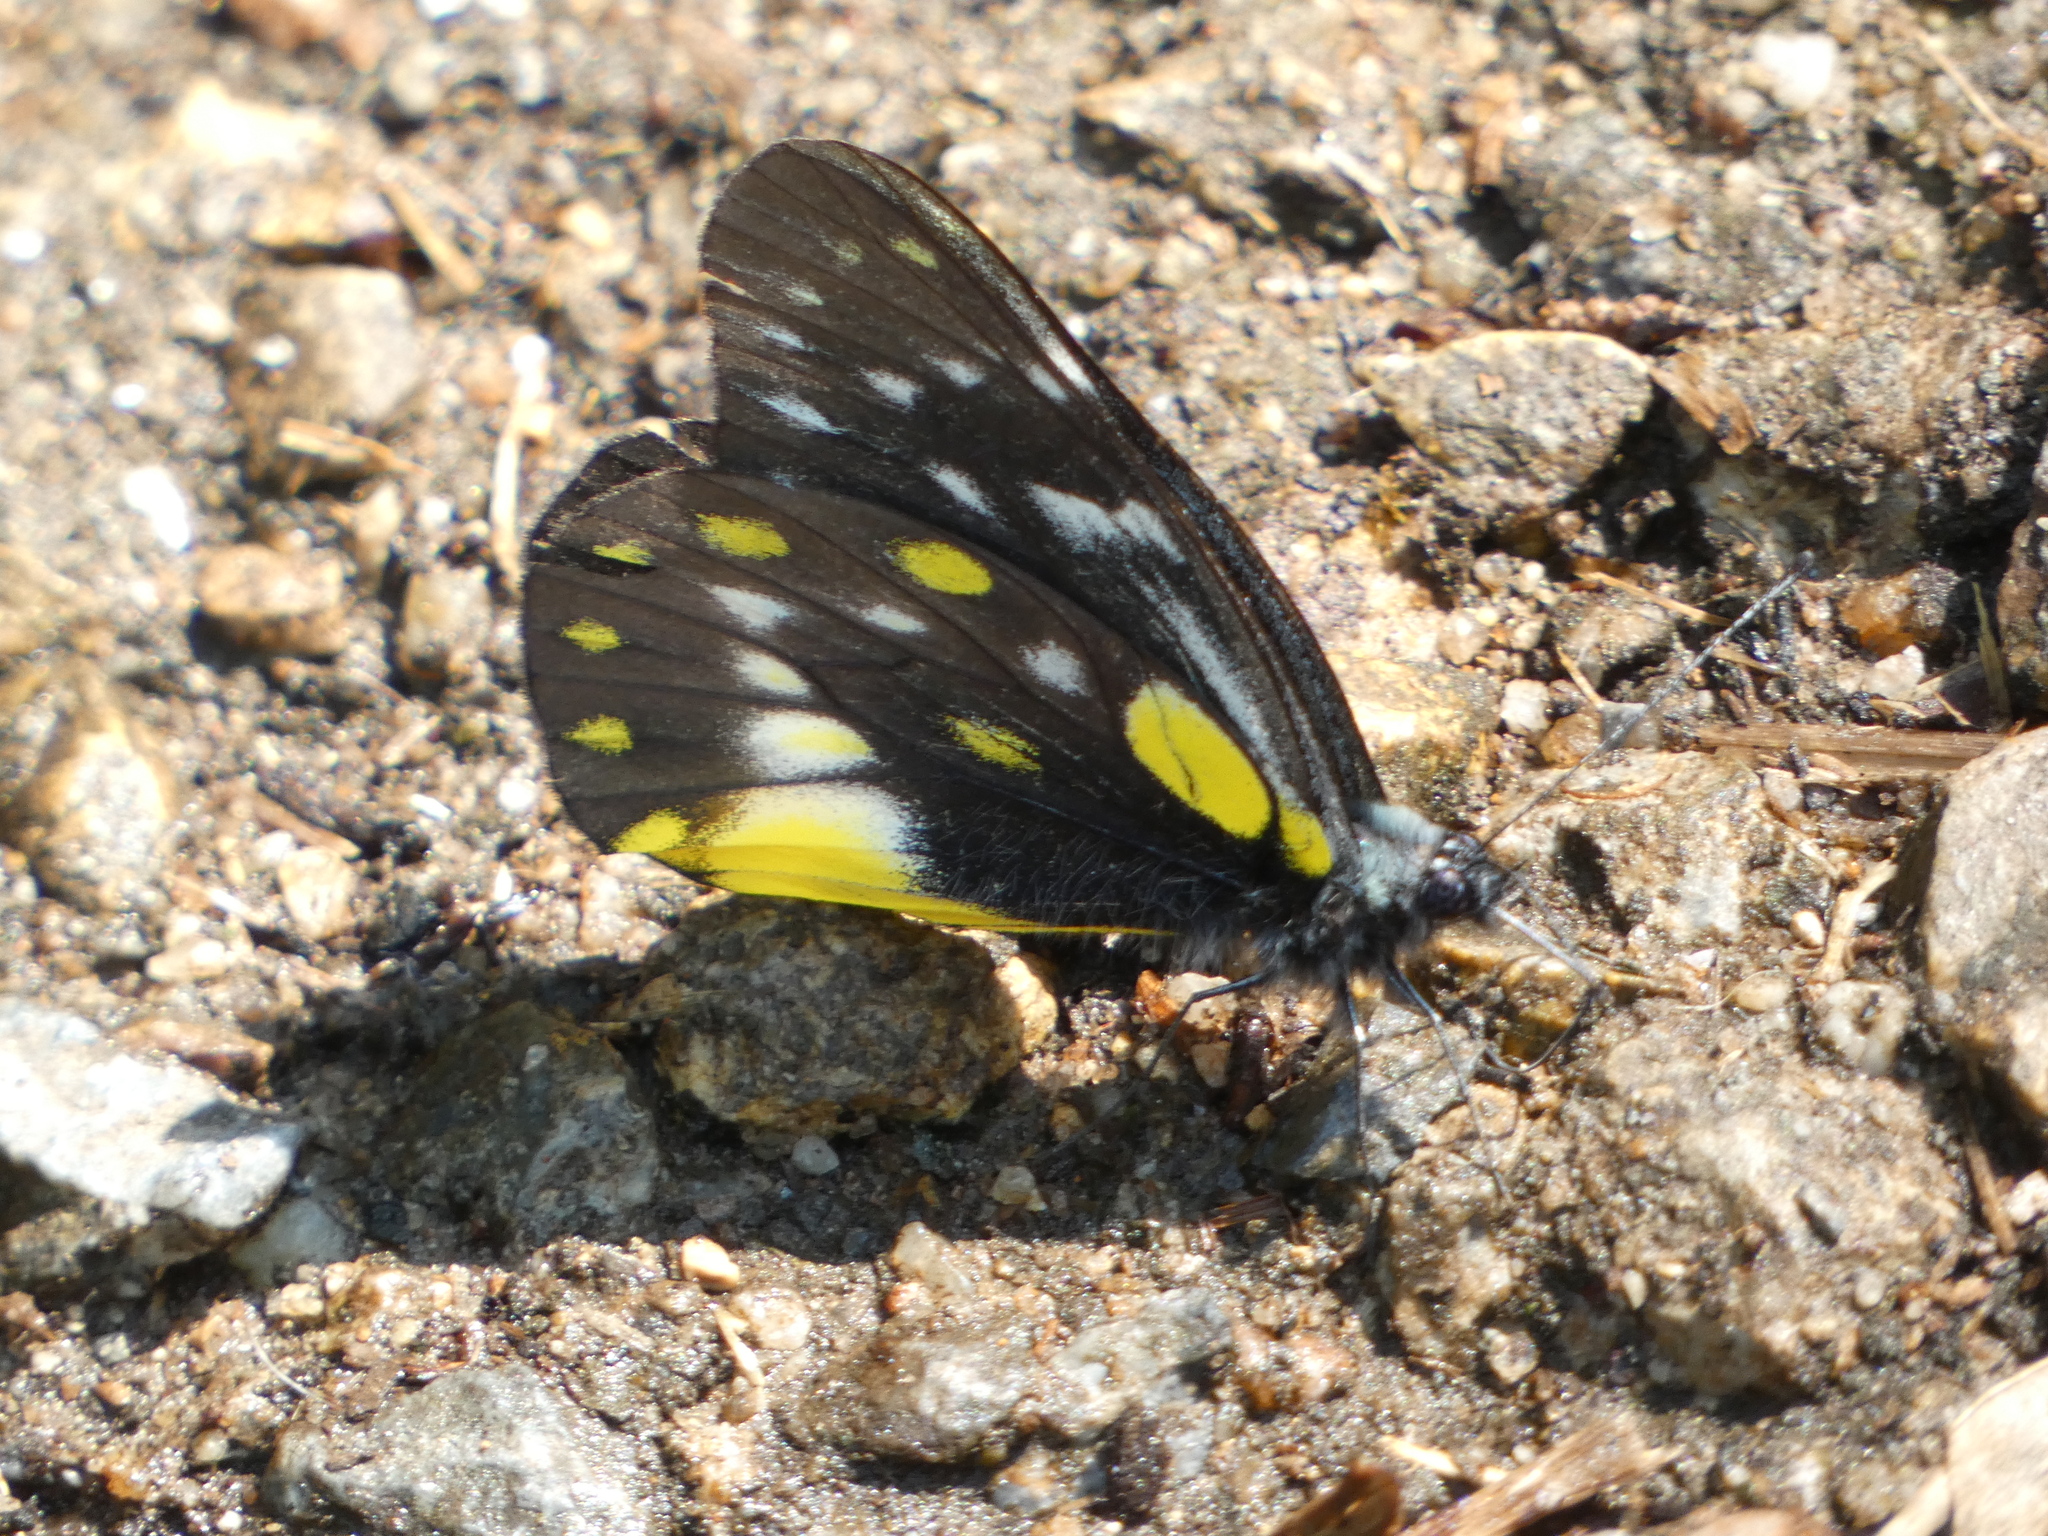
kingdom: Animalia
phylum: Arthropoda
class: Insecta
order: Lepidoptera
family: Pieridae
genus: Delias
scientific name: Delias belladonna
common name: Hill jezebel
